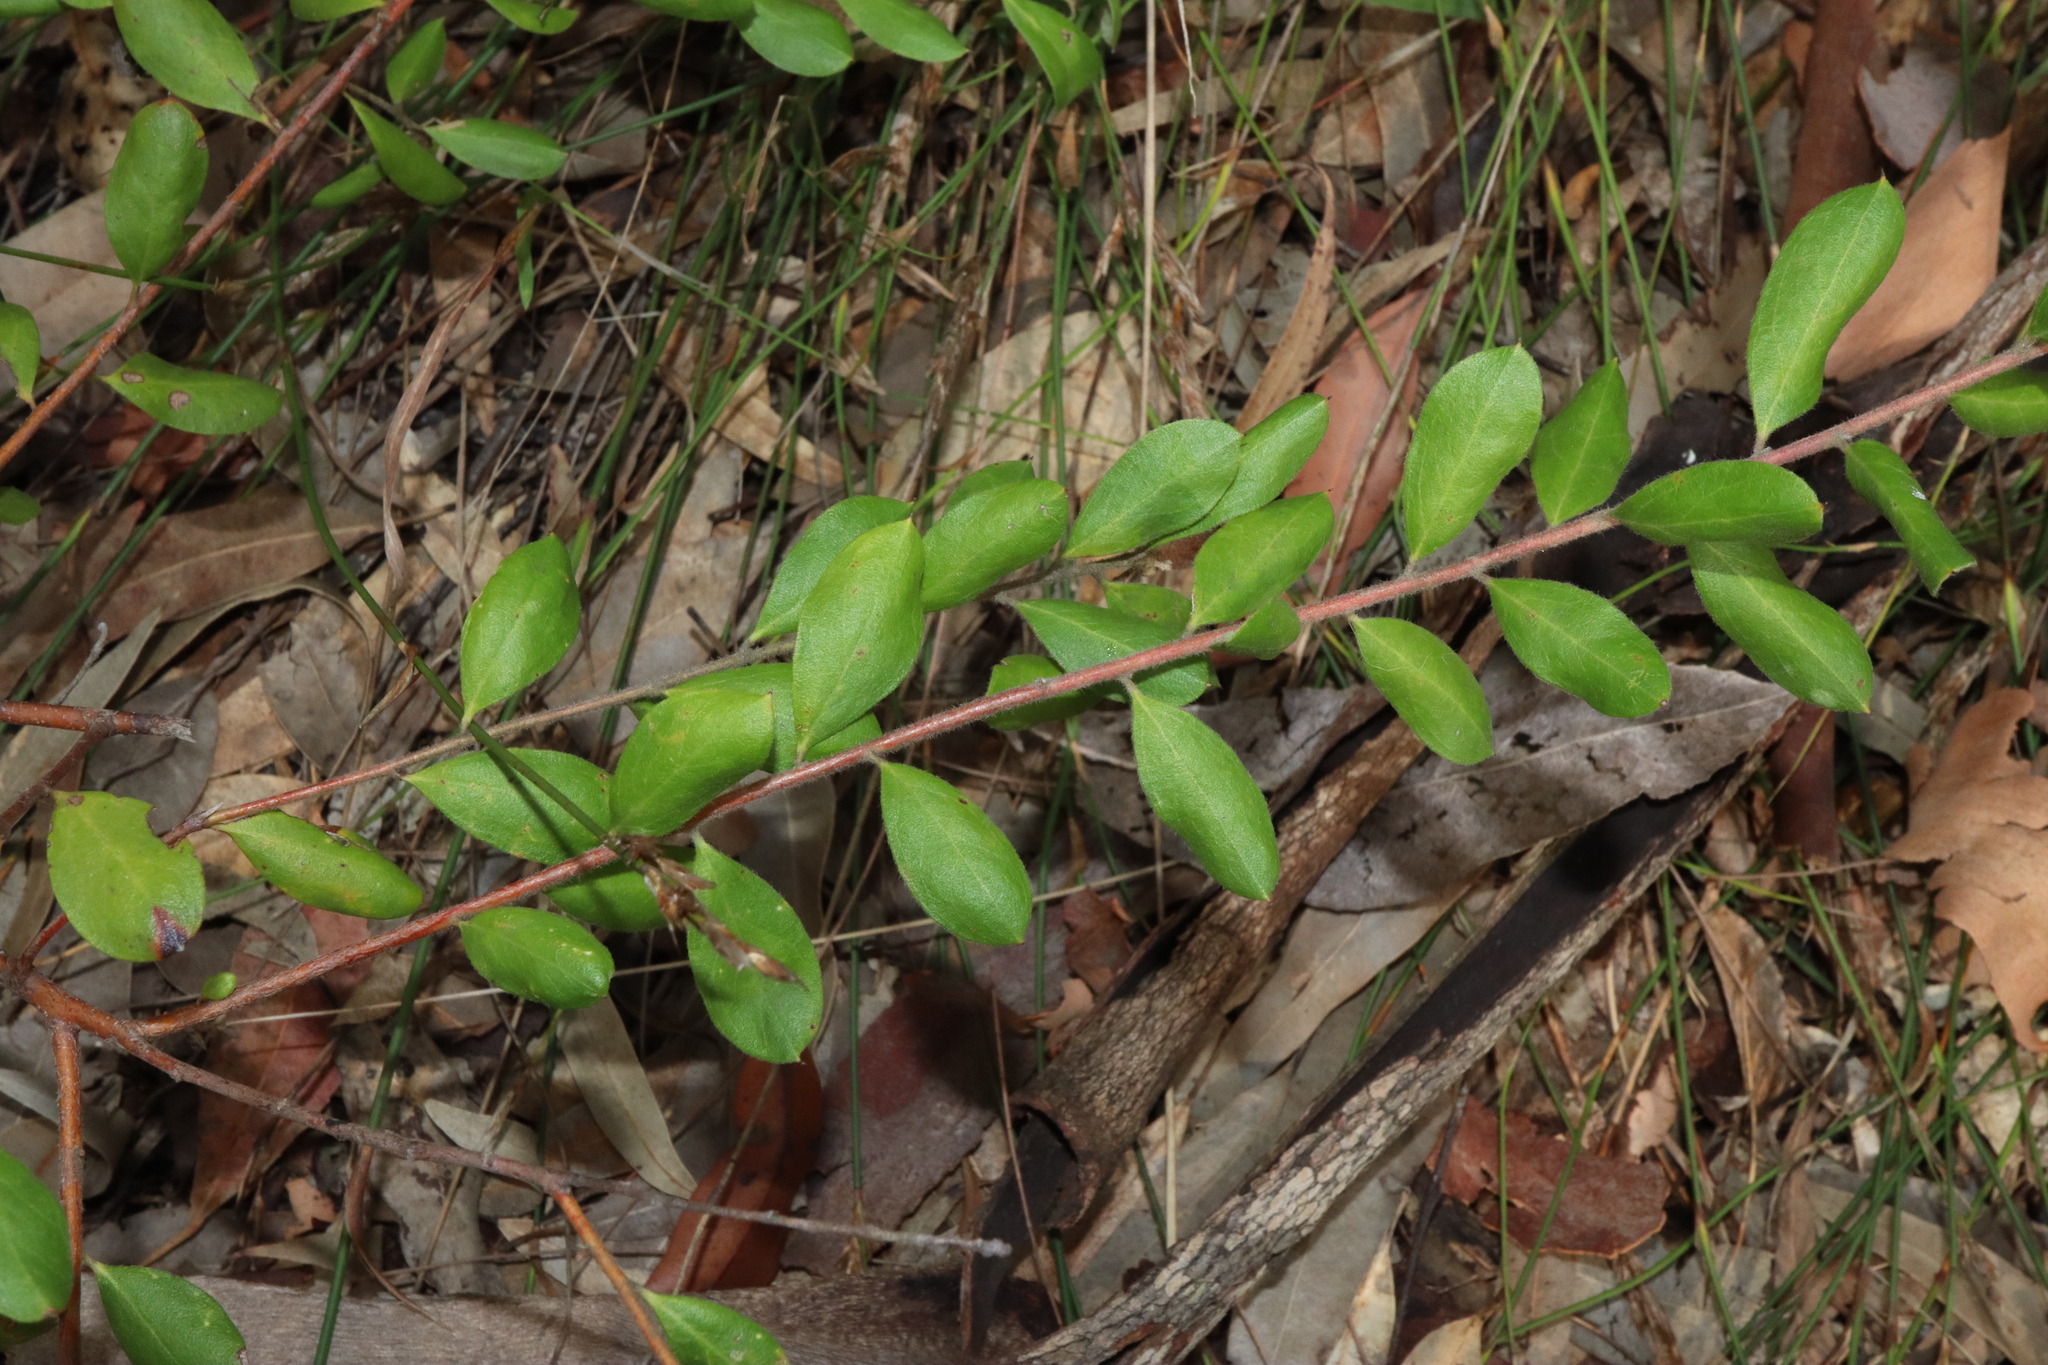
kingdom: Plantae
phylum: Tracheophyta
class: Magnoliopsida
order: Proteales
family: Proteaceae
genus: Grevillea
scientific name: Grevillea mucronulata
